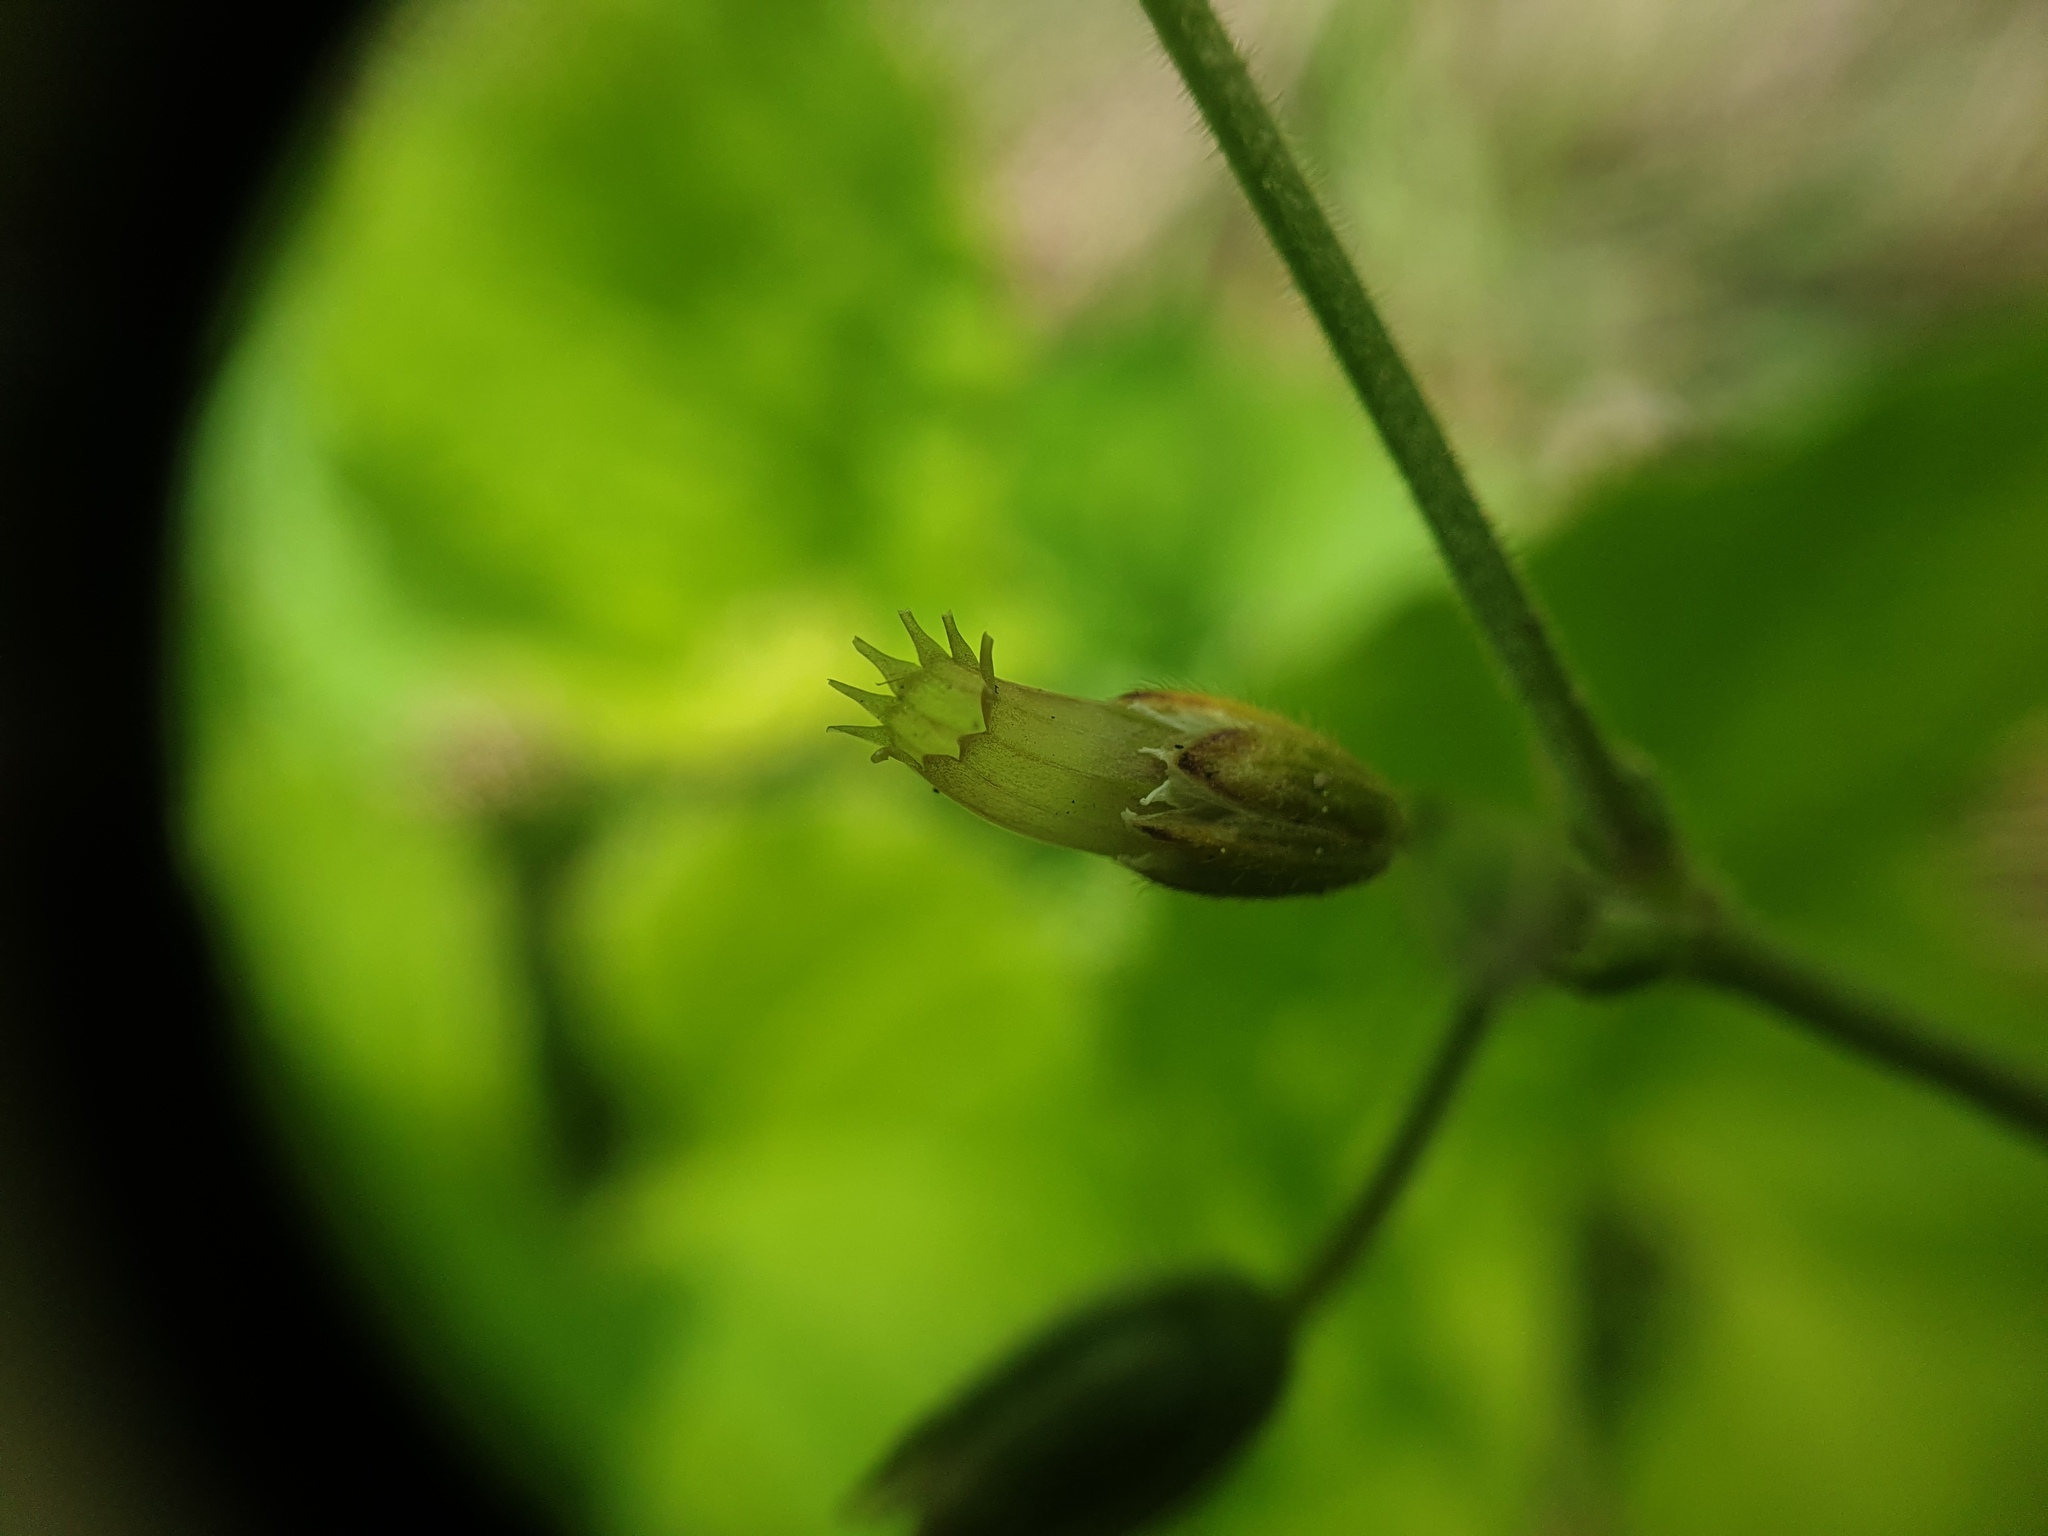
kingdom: Plantae
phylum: Tracheophyta
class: Magnoliopsida
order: Caryophyllales
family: Caryophyllaceae
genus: Cerastium
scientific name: Cerastium holosteoides
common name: Big chickweed
